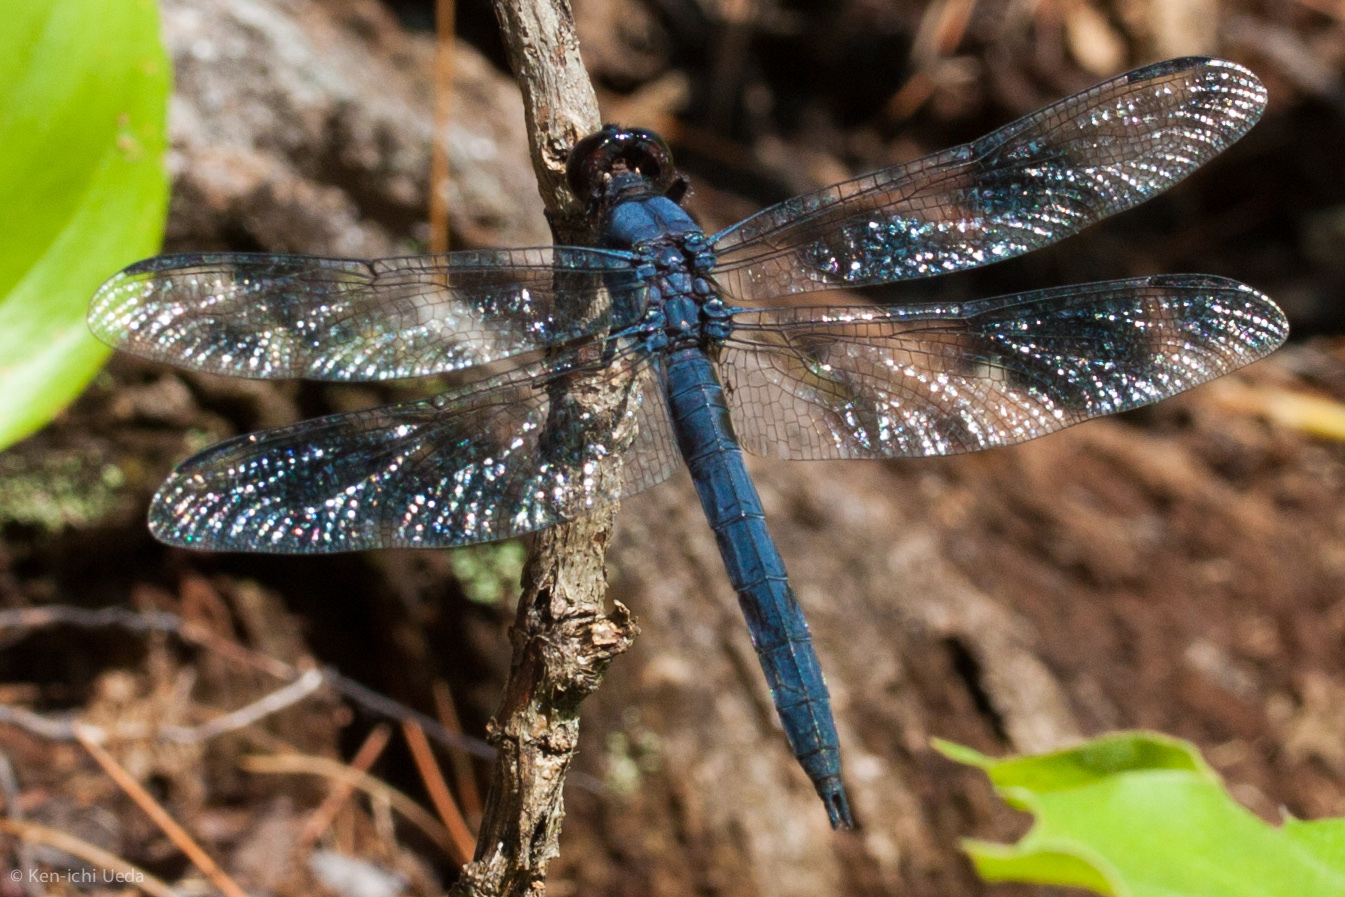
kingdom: Animalia
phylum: Arthropoda
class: Insecta
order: Odonata
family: Libellulidae
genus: Libellula
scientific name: Libellula incesta
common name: Slaty skimmer
